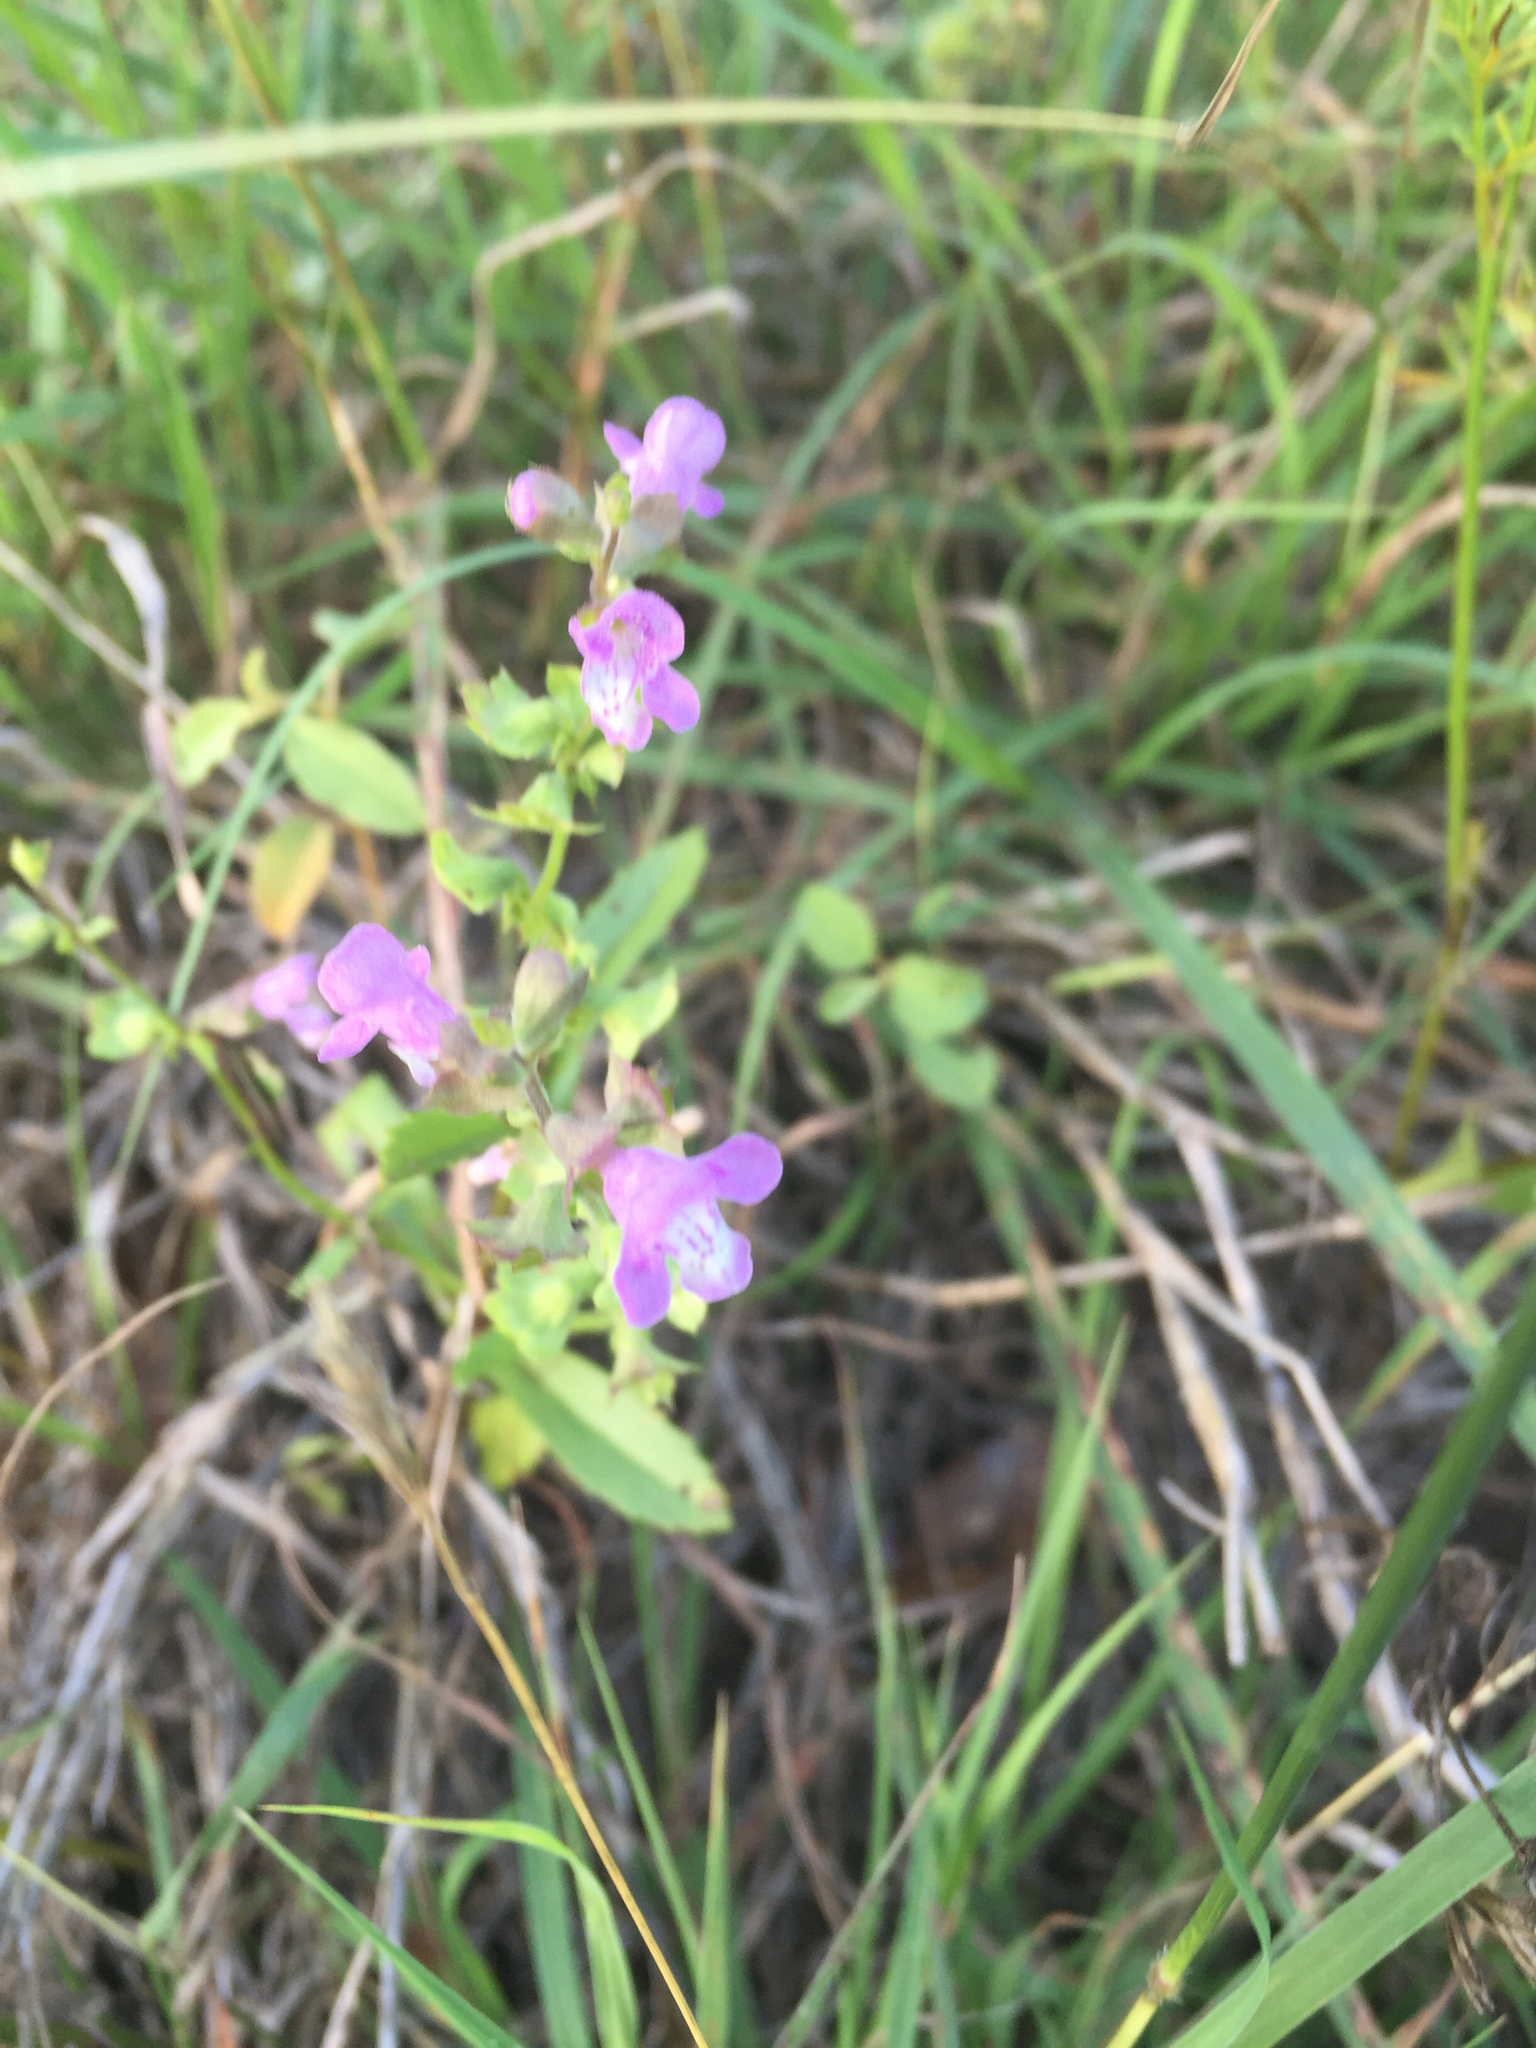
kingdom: Plantae
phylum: Tracheophyta
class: Magnoliopsida
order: Lamiales
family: Lamiaceae
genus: Warnockia
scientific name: Warnockia scutellarioides
